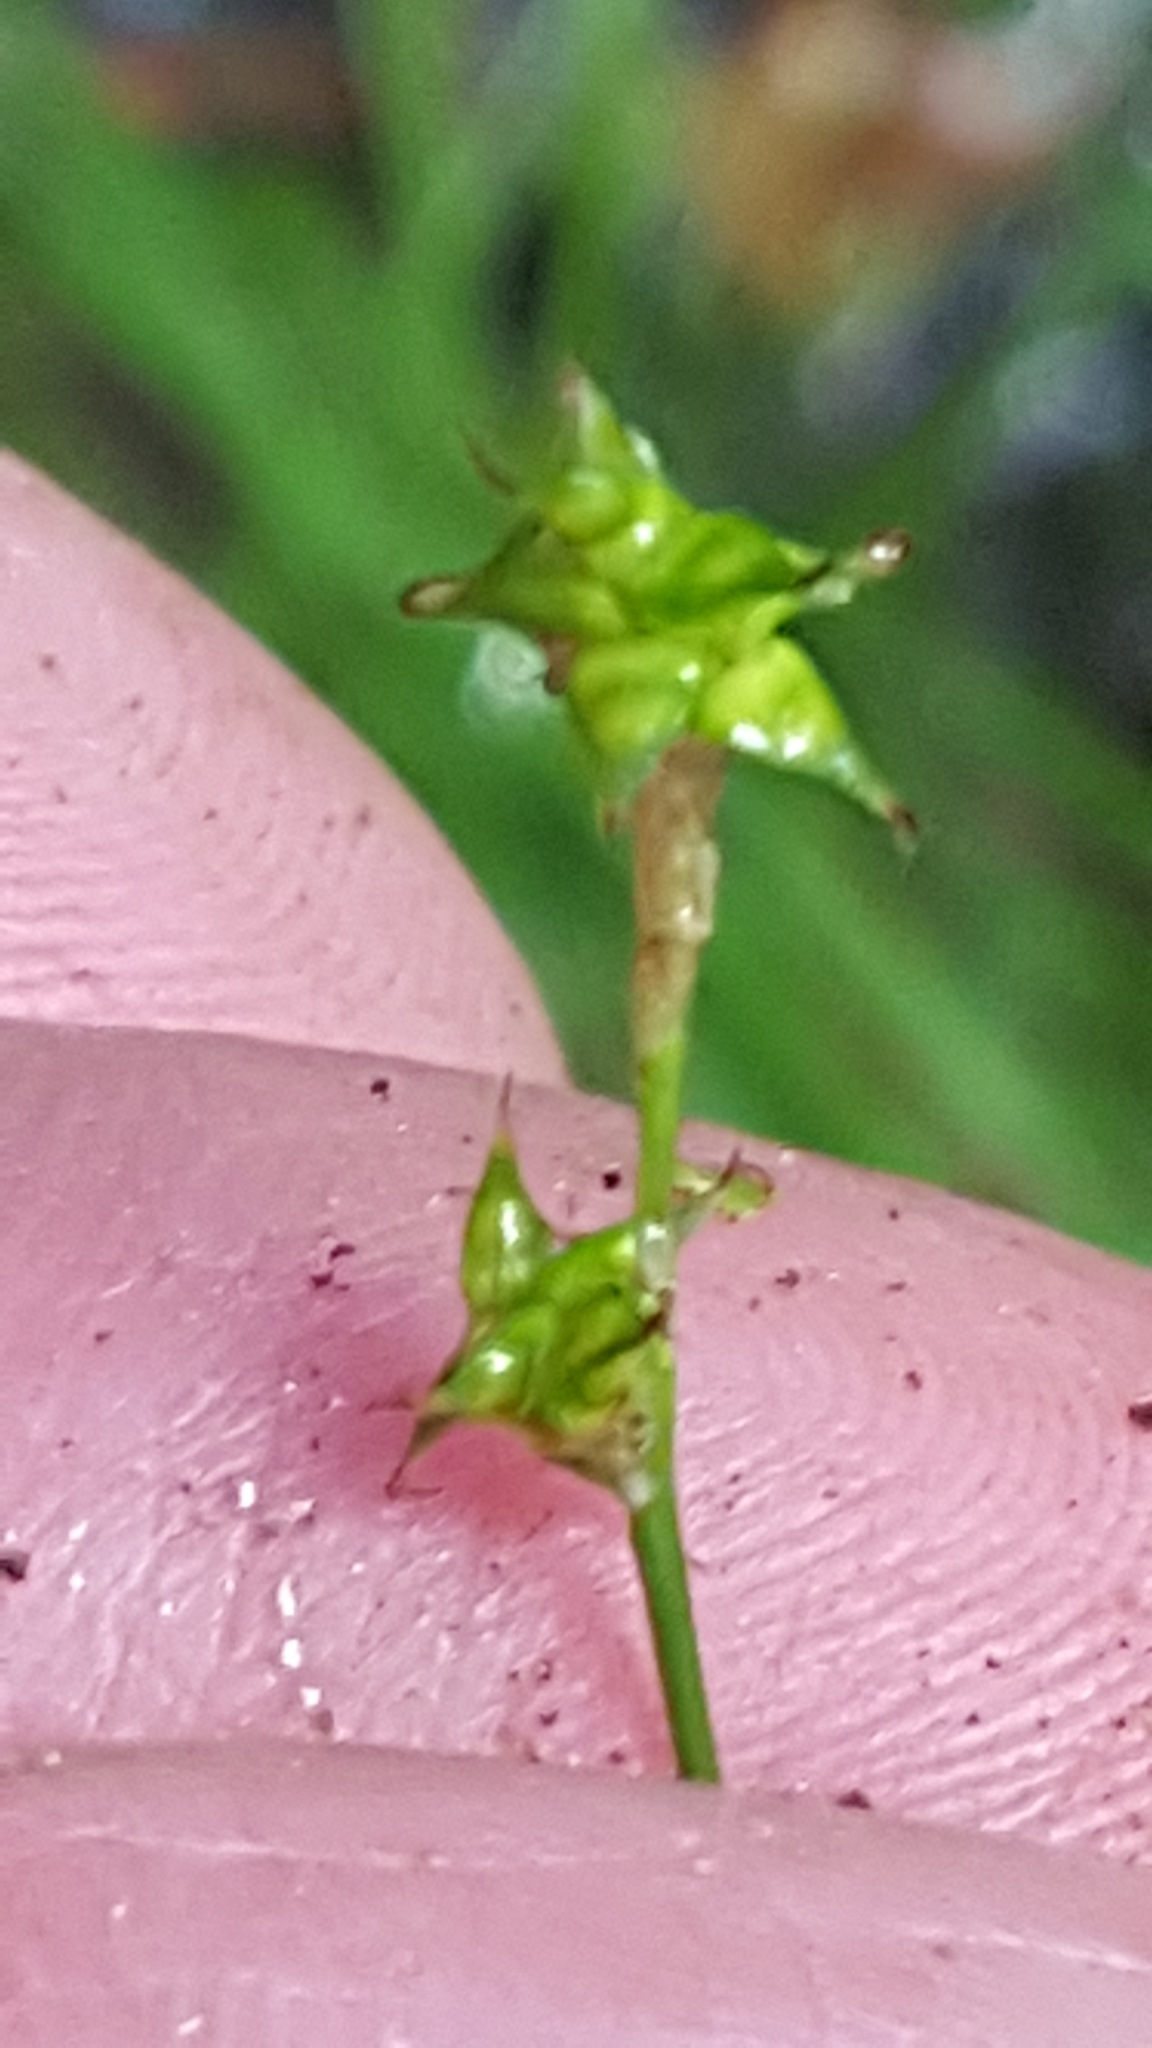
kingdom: Plantae
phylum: Tracheophyta
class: Liliopsida
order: Poales
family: Cyperaceae
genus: Carex
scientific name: Carex interior
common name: Inland sedge
